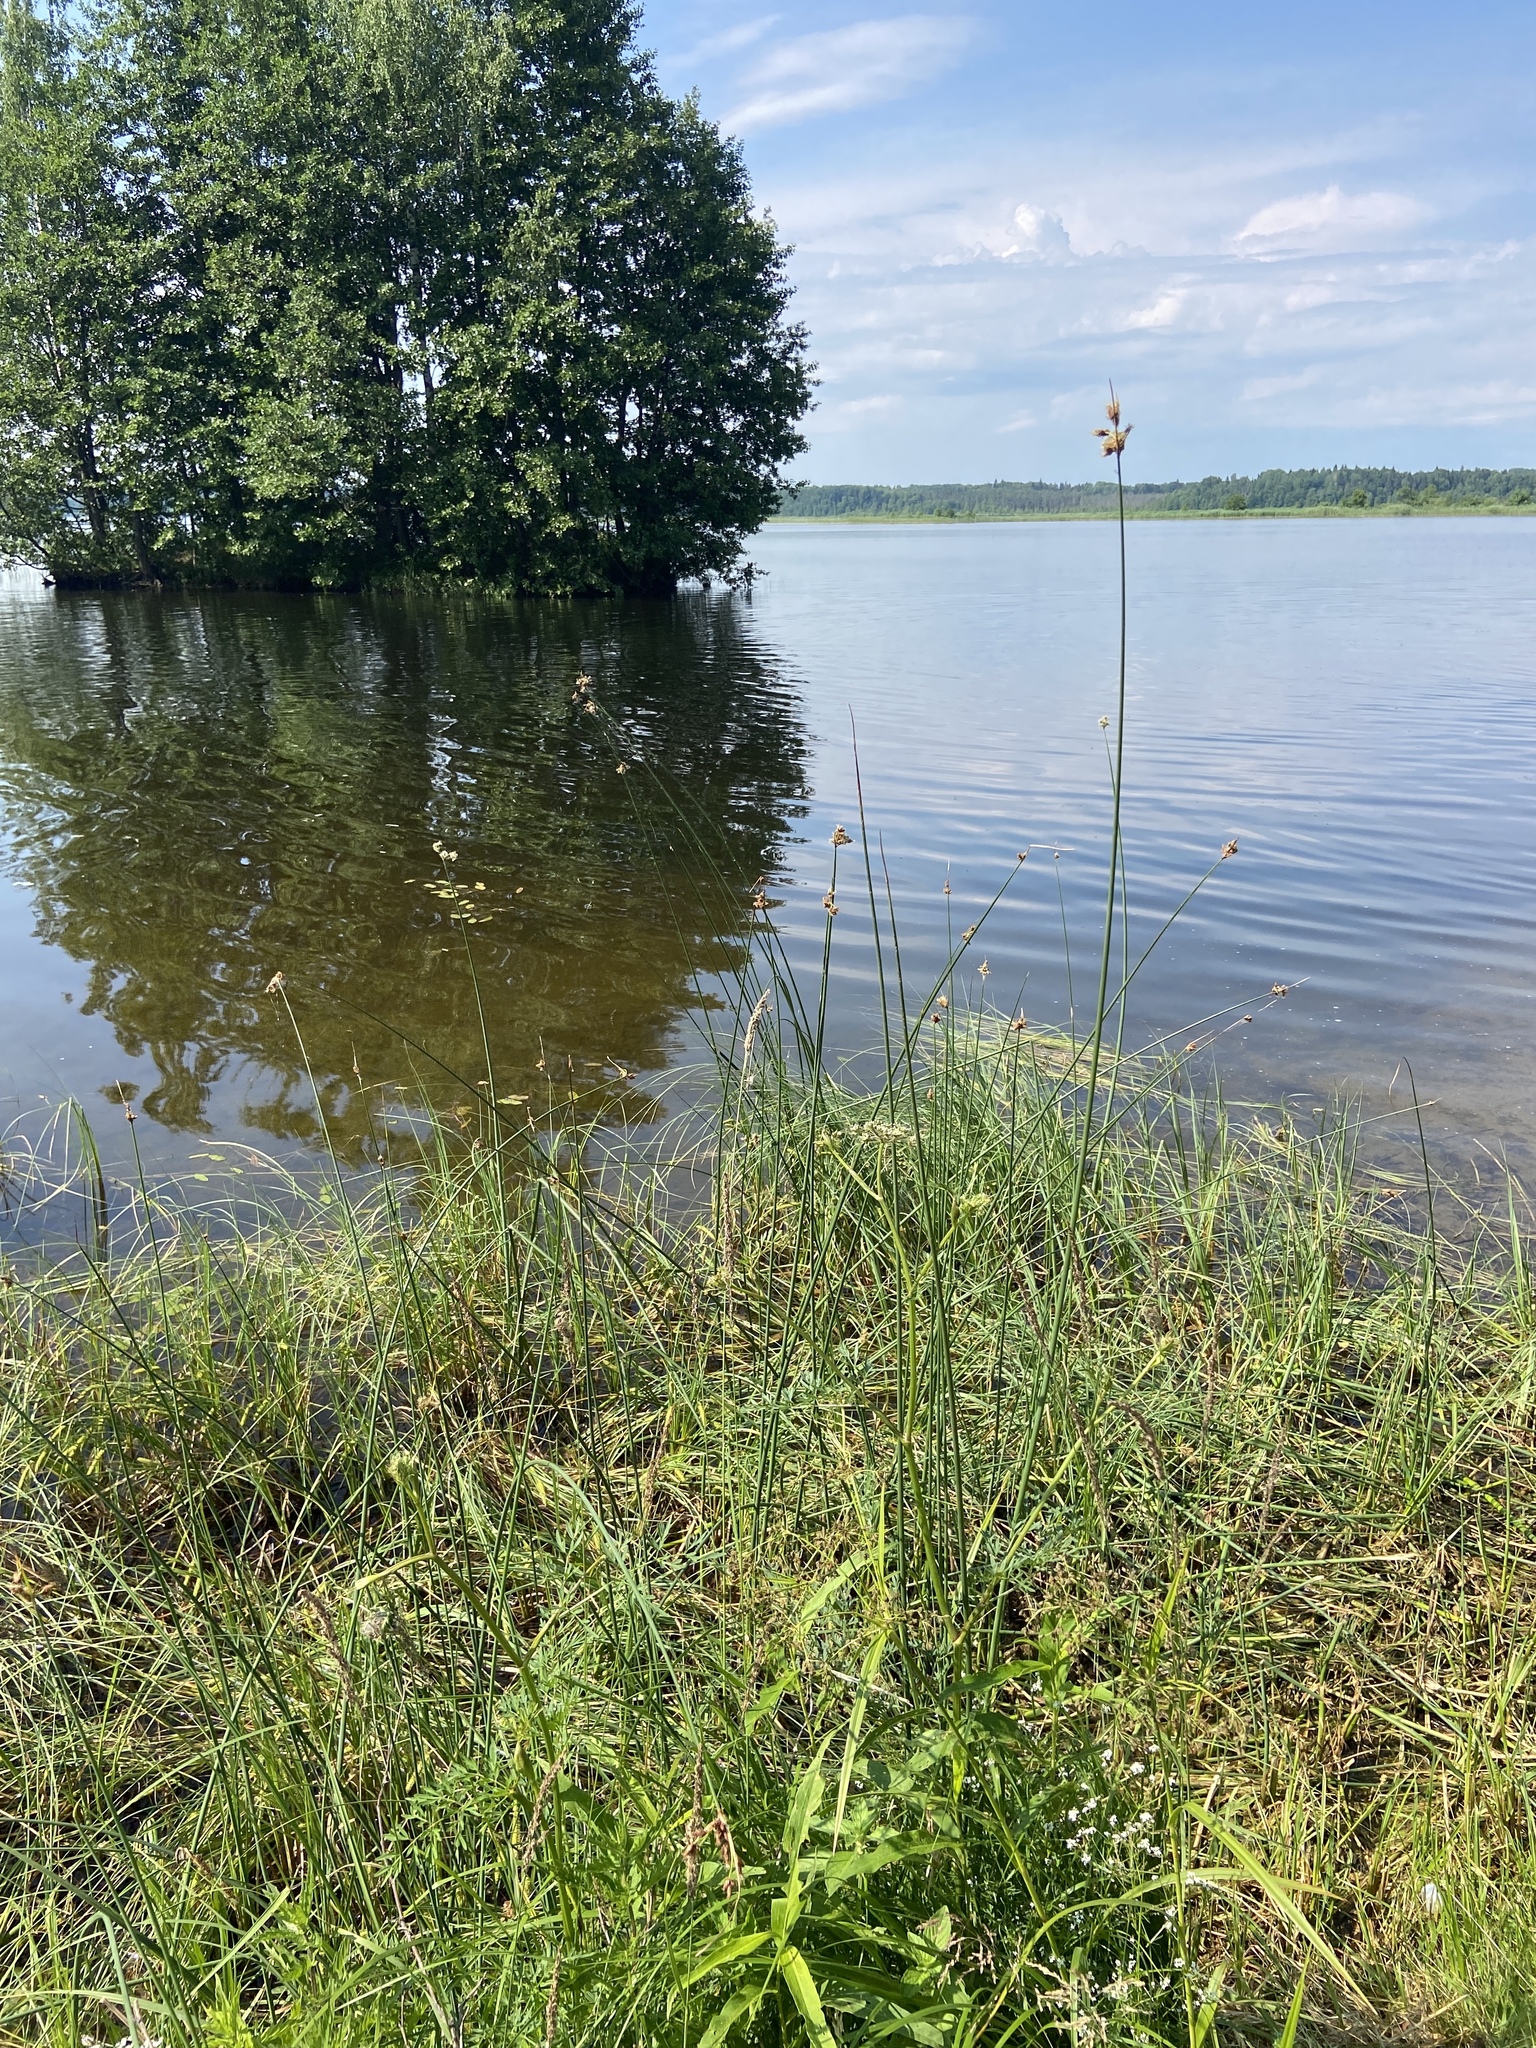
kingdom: Plantae
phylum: Tracheophyta
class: Liliopsida
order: Poales
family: Cyperaceae
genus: Schoenoplectus
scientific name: Schoenoplectus lacustris
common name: Common club-rush
